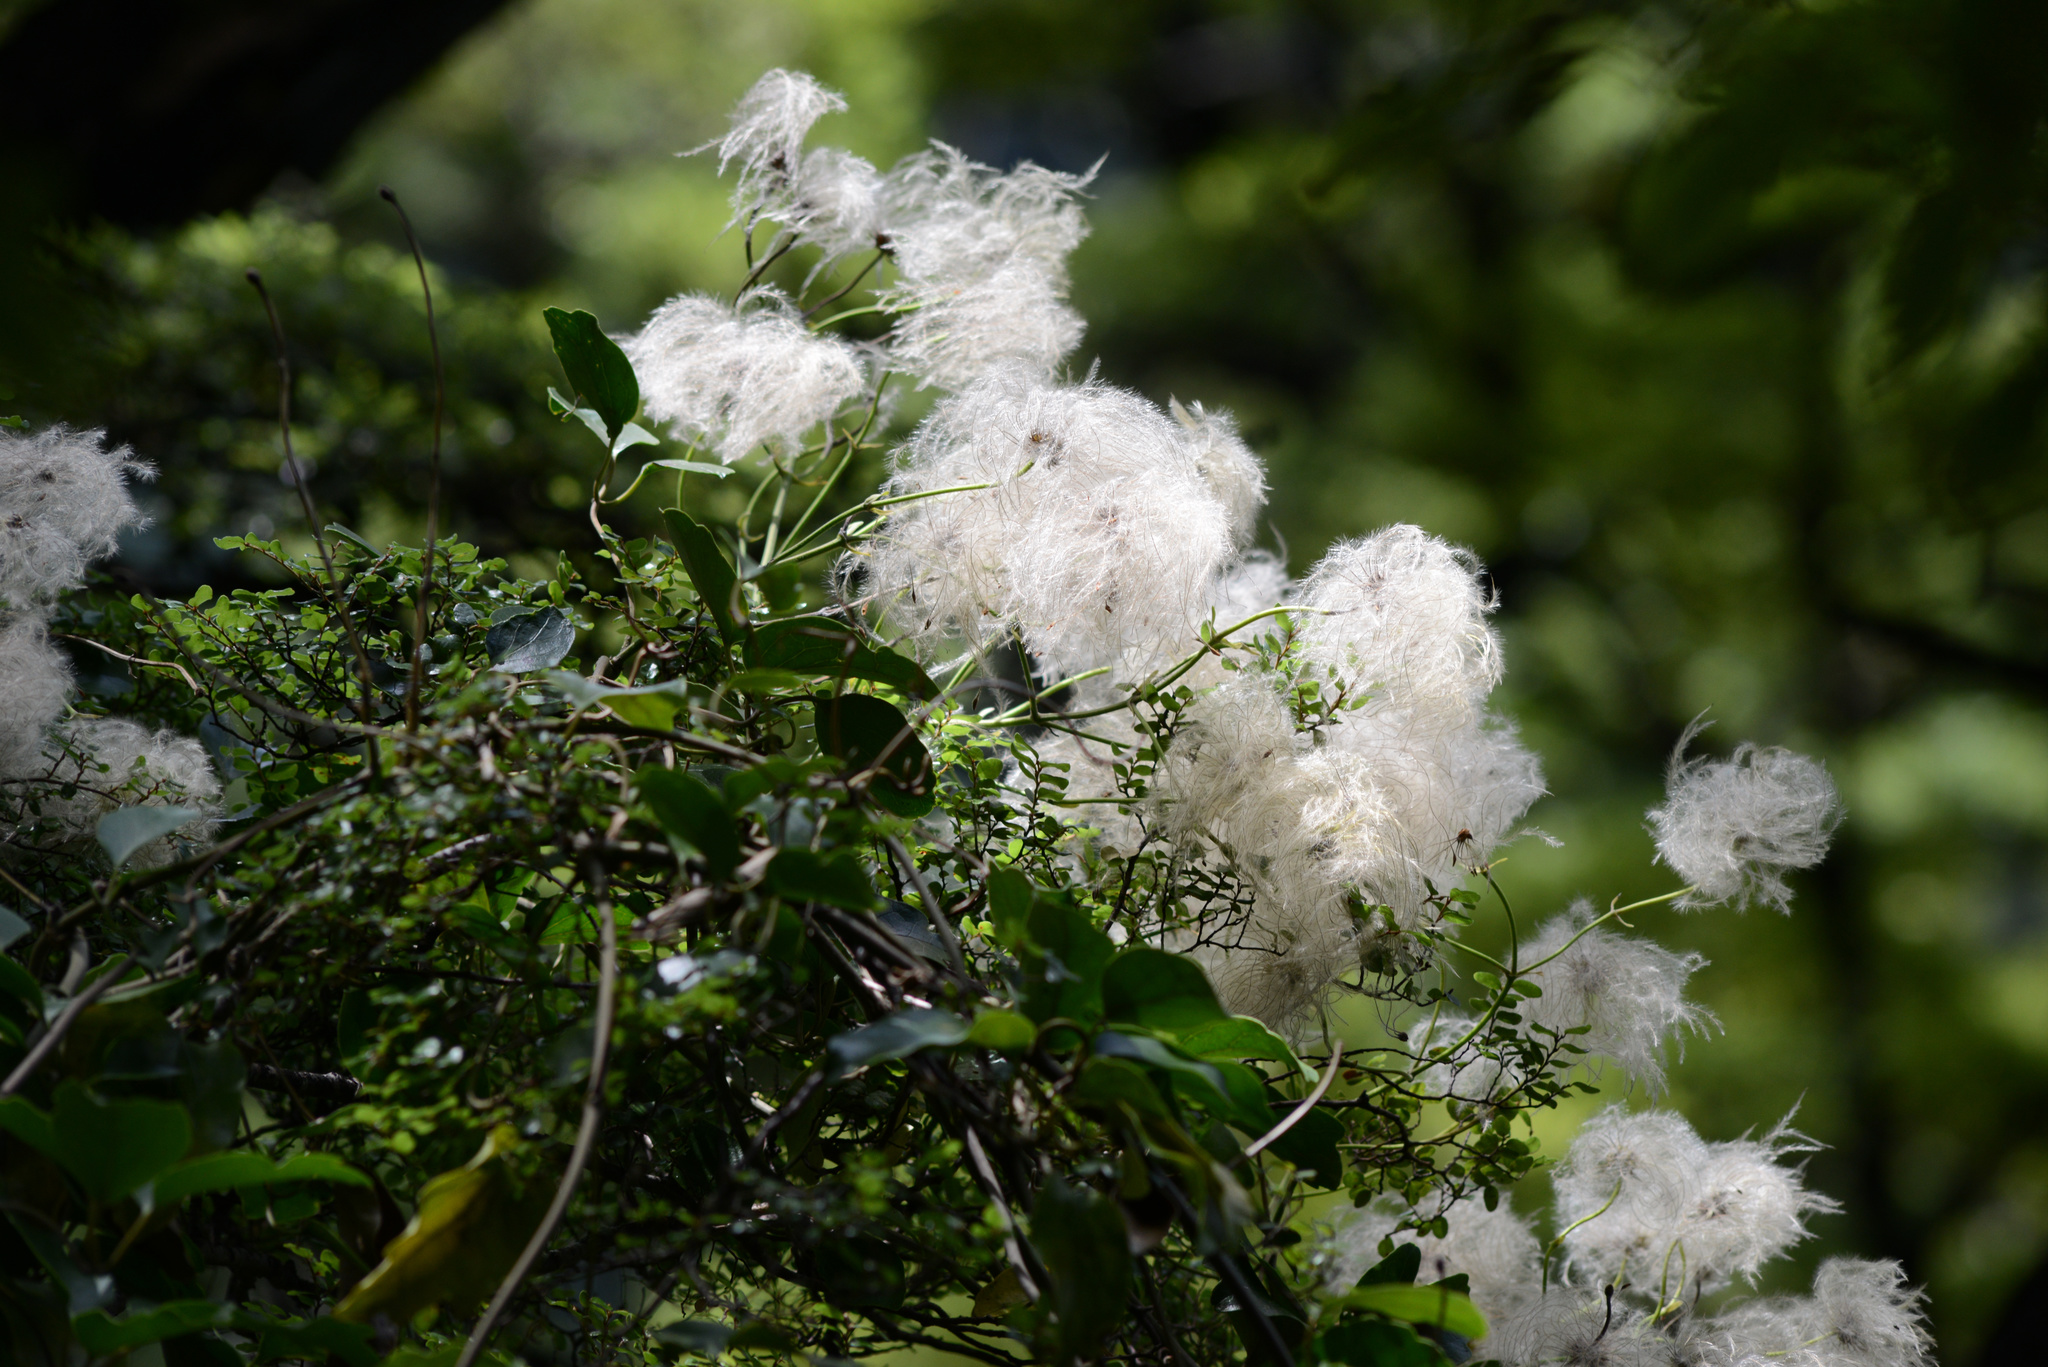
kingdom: Plantae
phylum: Tracheophyta
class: Magnoliopsida
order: Ranunculales
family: Ranunculaceae
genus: Clematis
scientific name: Clematis paniculata
